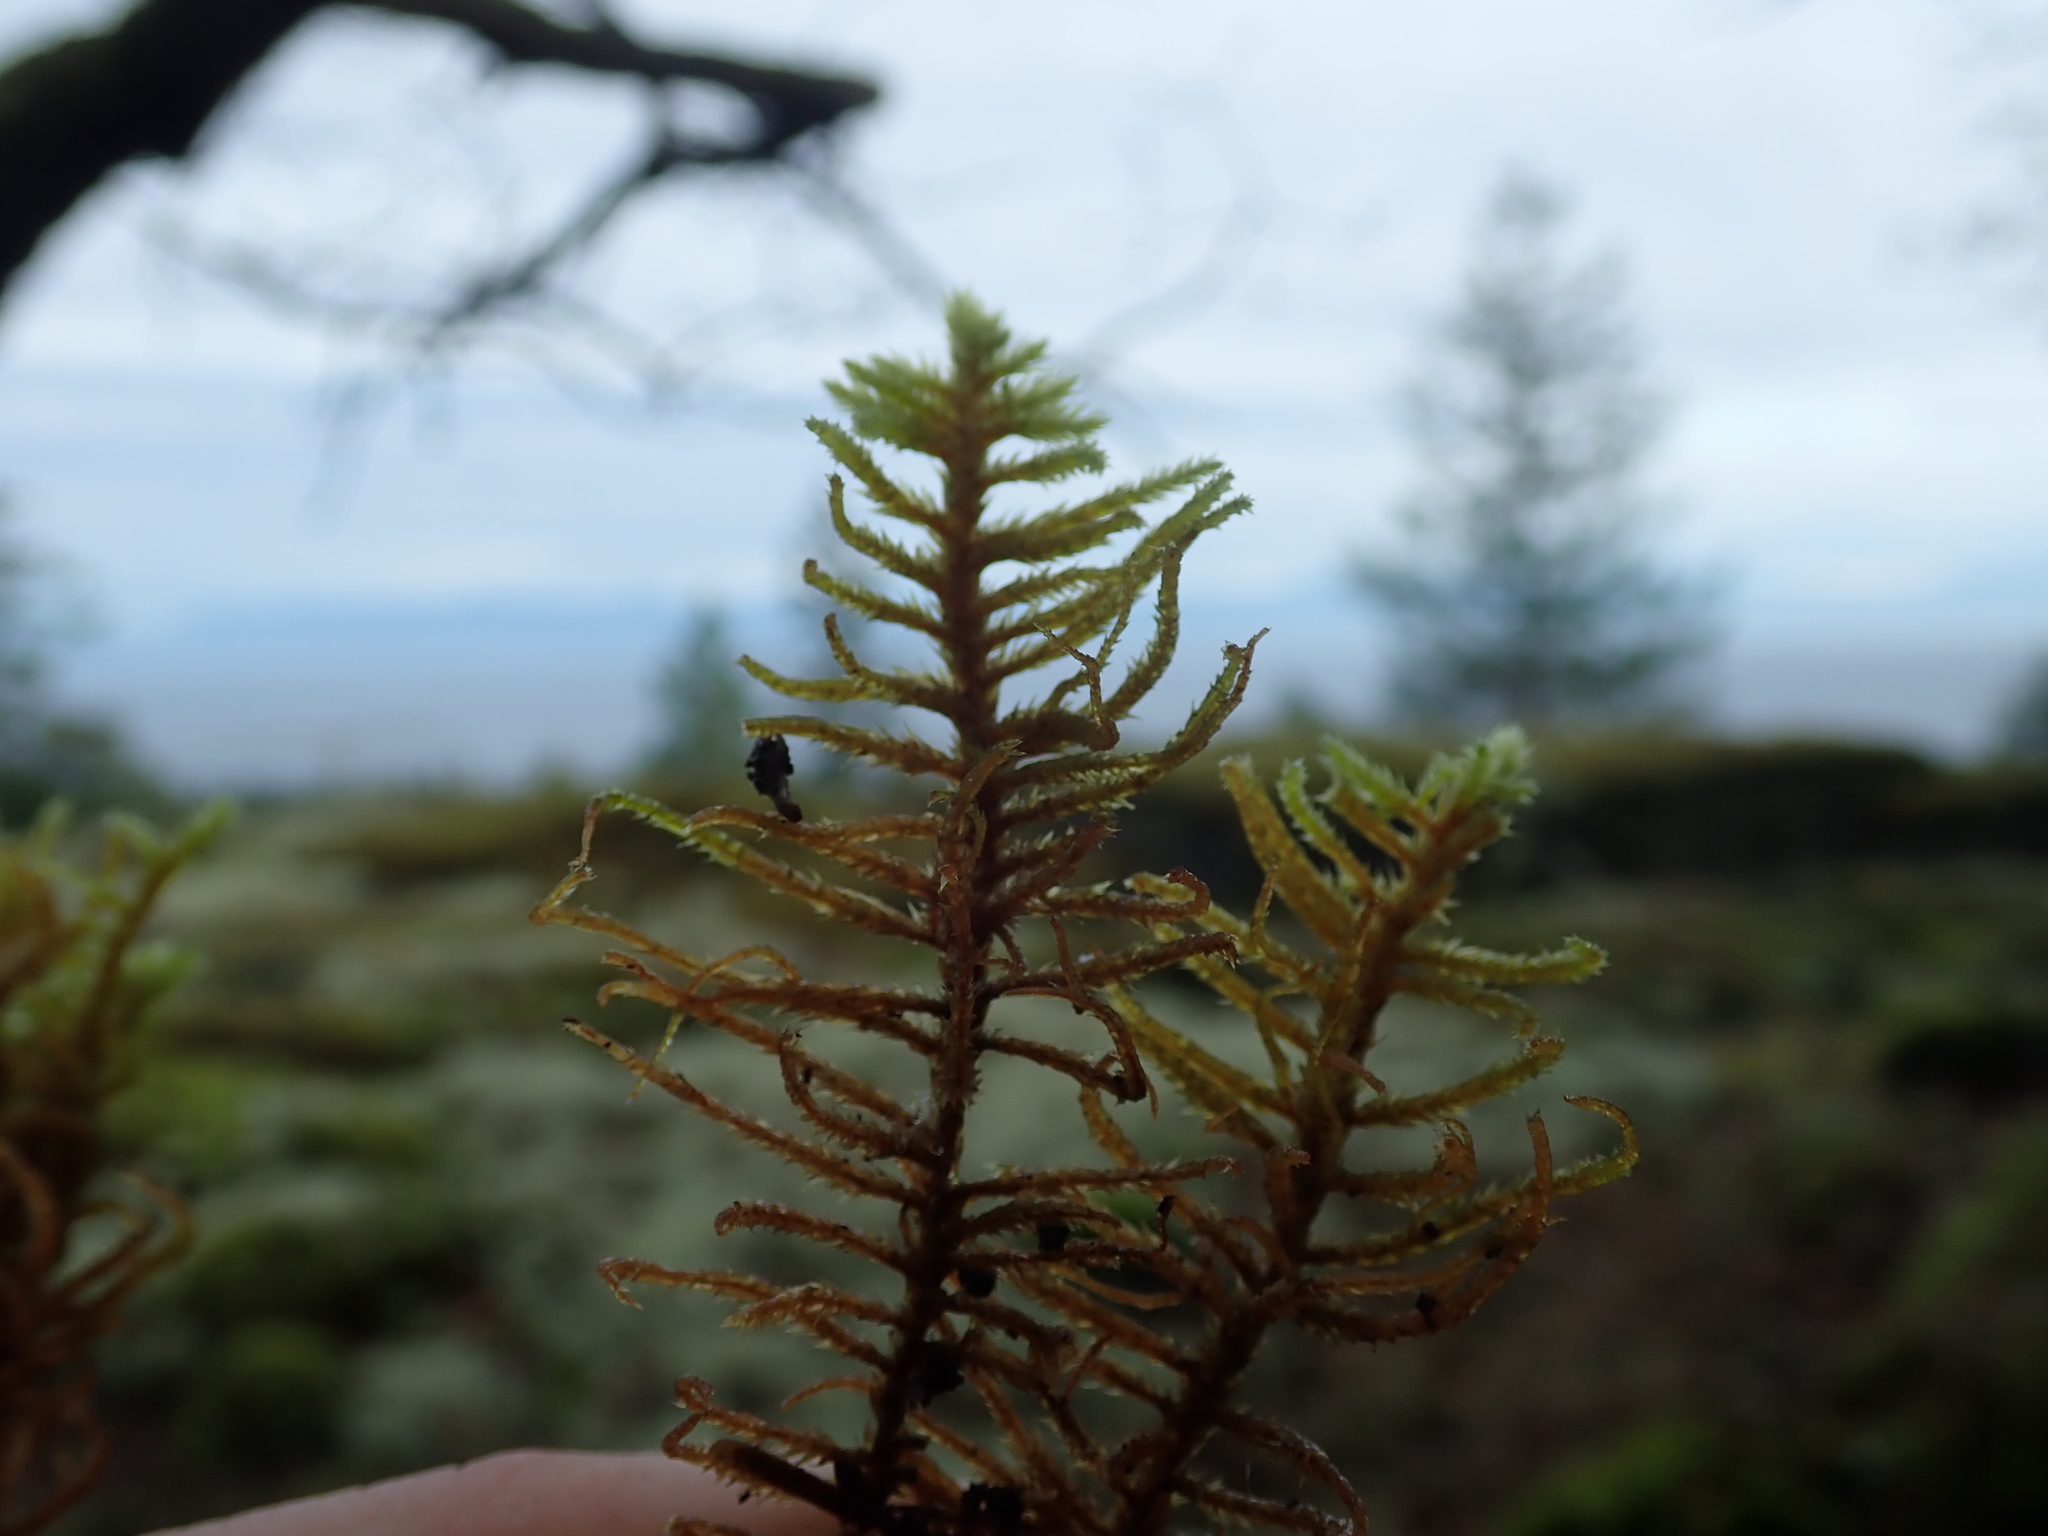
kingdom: Plantae
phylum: Bryophyta
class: Bryopsida
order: Hypnales
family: Antitrichiaceae
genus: Antitrichia
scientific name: Antitrichia californica
